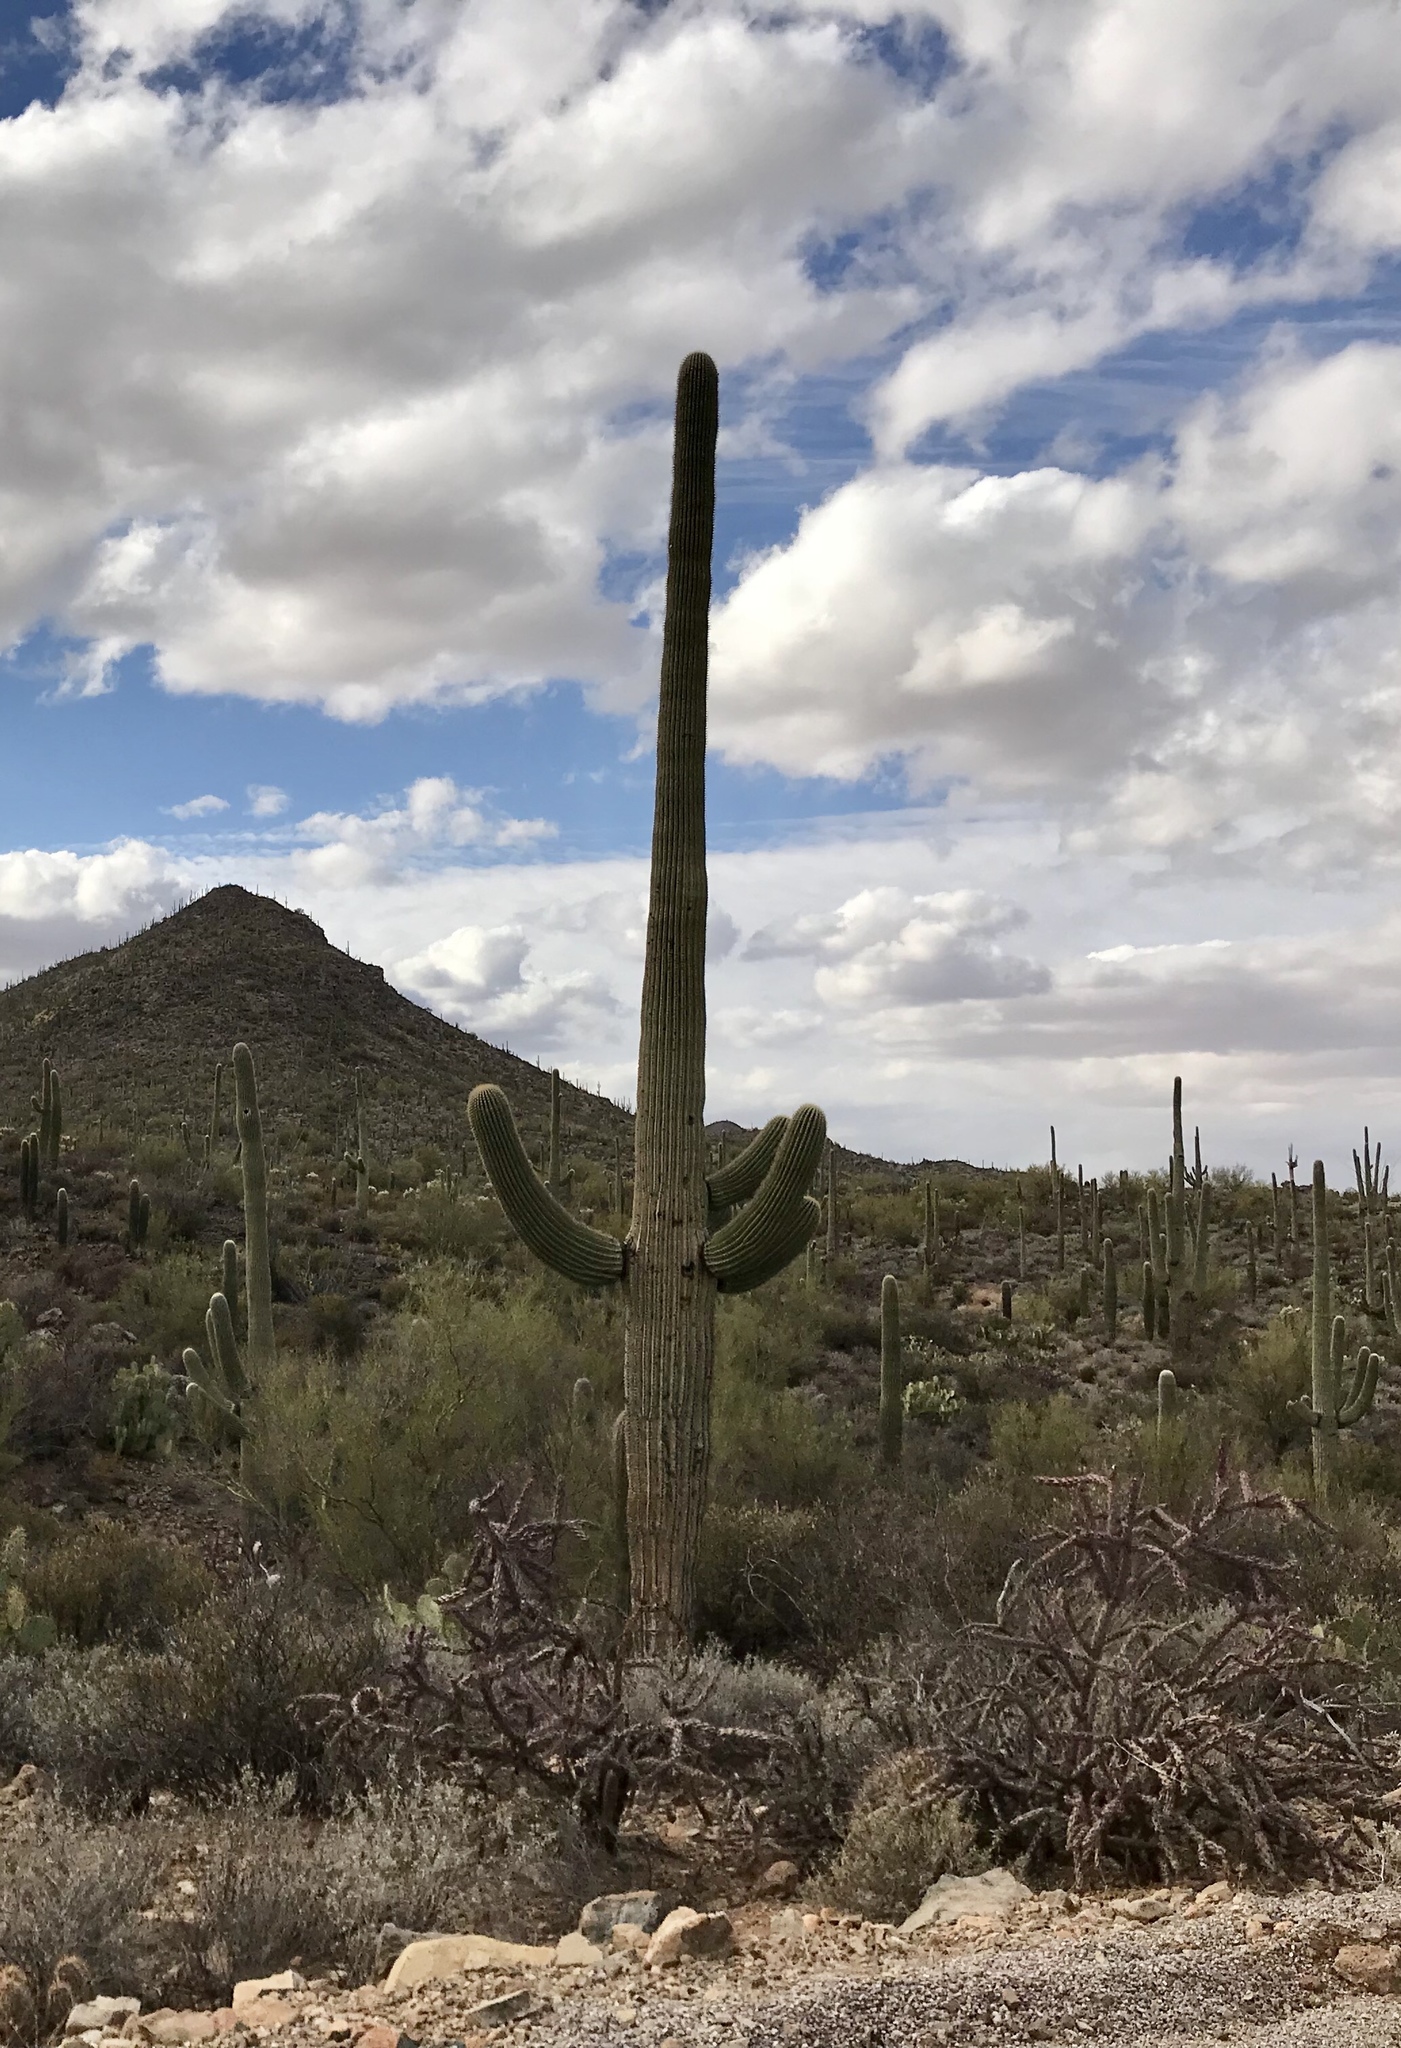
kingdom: Plantae
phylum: Tracheophyta
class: Magnoliopsida
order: Caryophyllales
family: Cactaceae
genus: Carnegiea
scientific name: Carnegiea gigantea
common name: Saguaro
